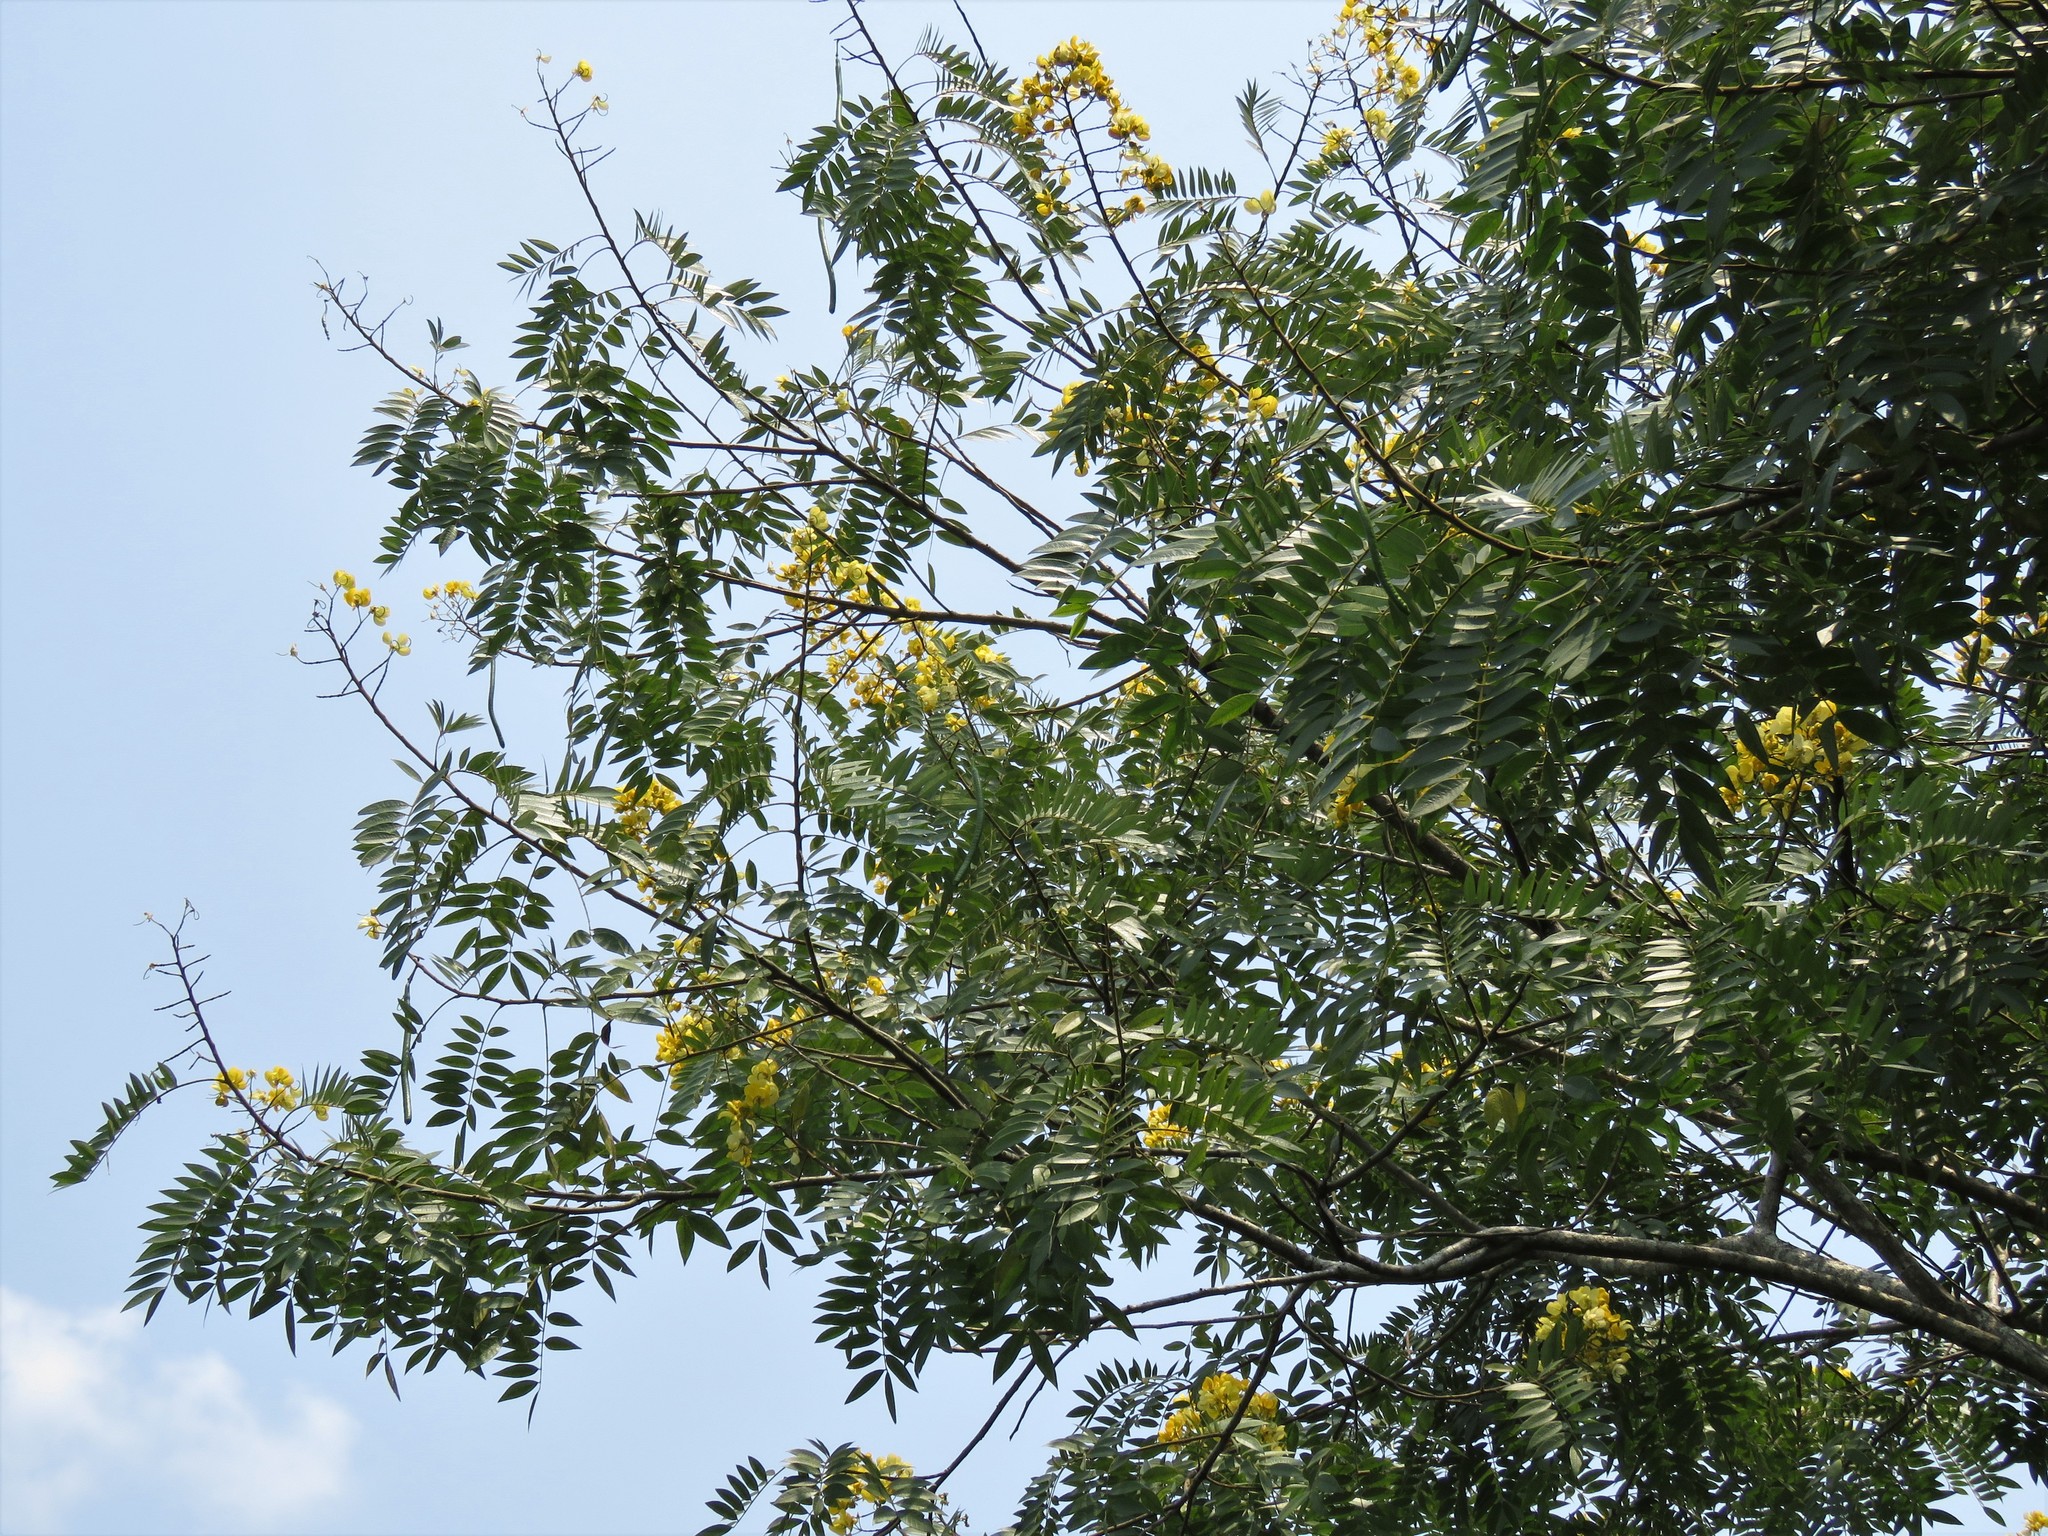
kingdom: Plantae
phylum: Tracheophyta
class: Magnoliopsida
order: Fabales
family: Fabaceae
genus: Senna
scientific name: Senna spectabilis
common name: Casia amarilla
